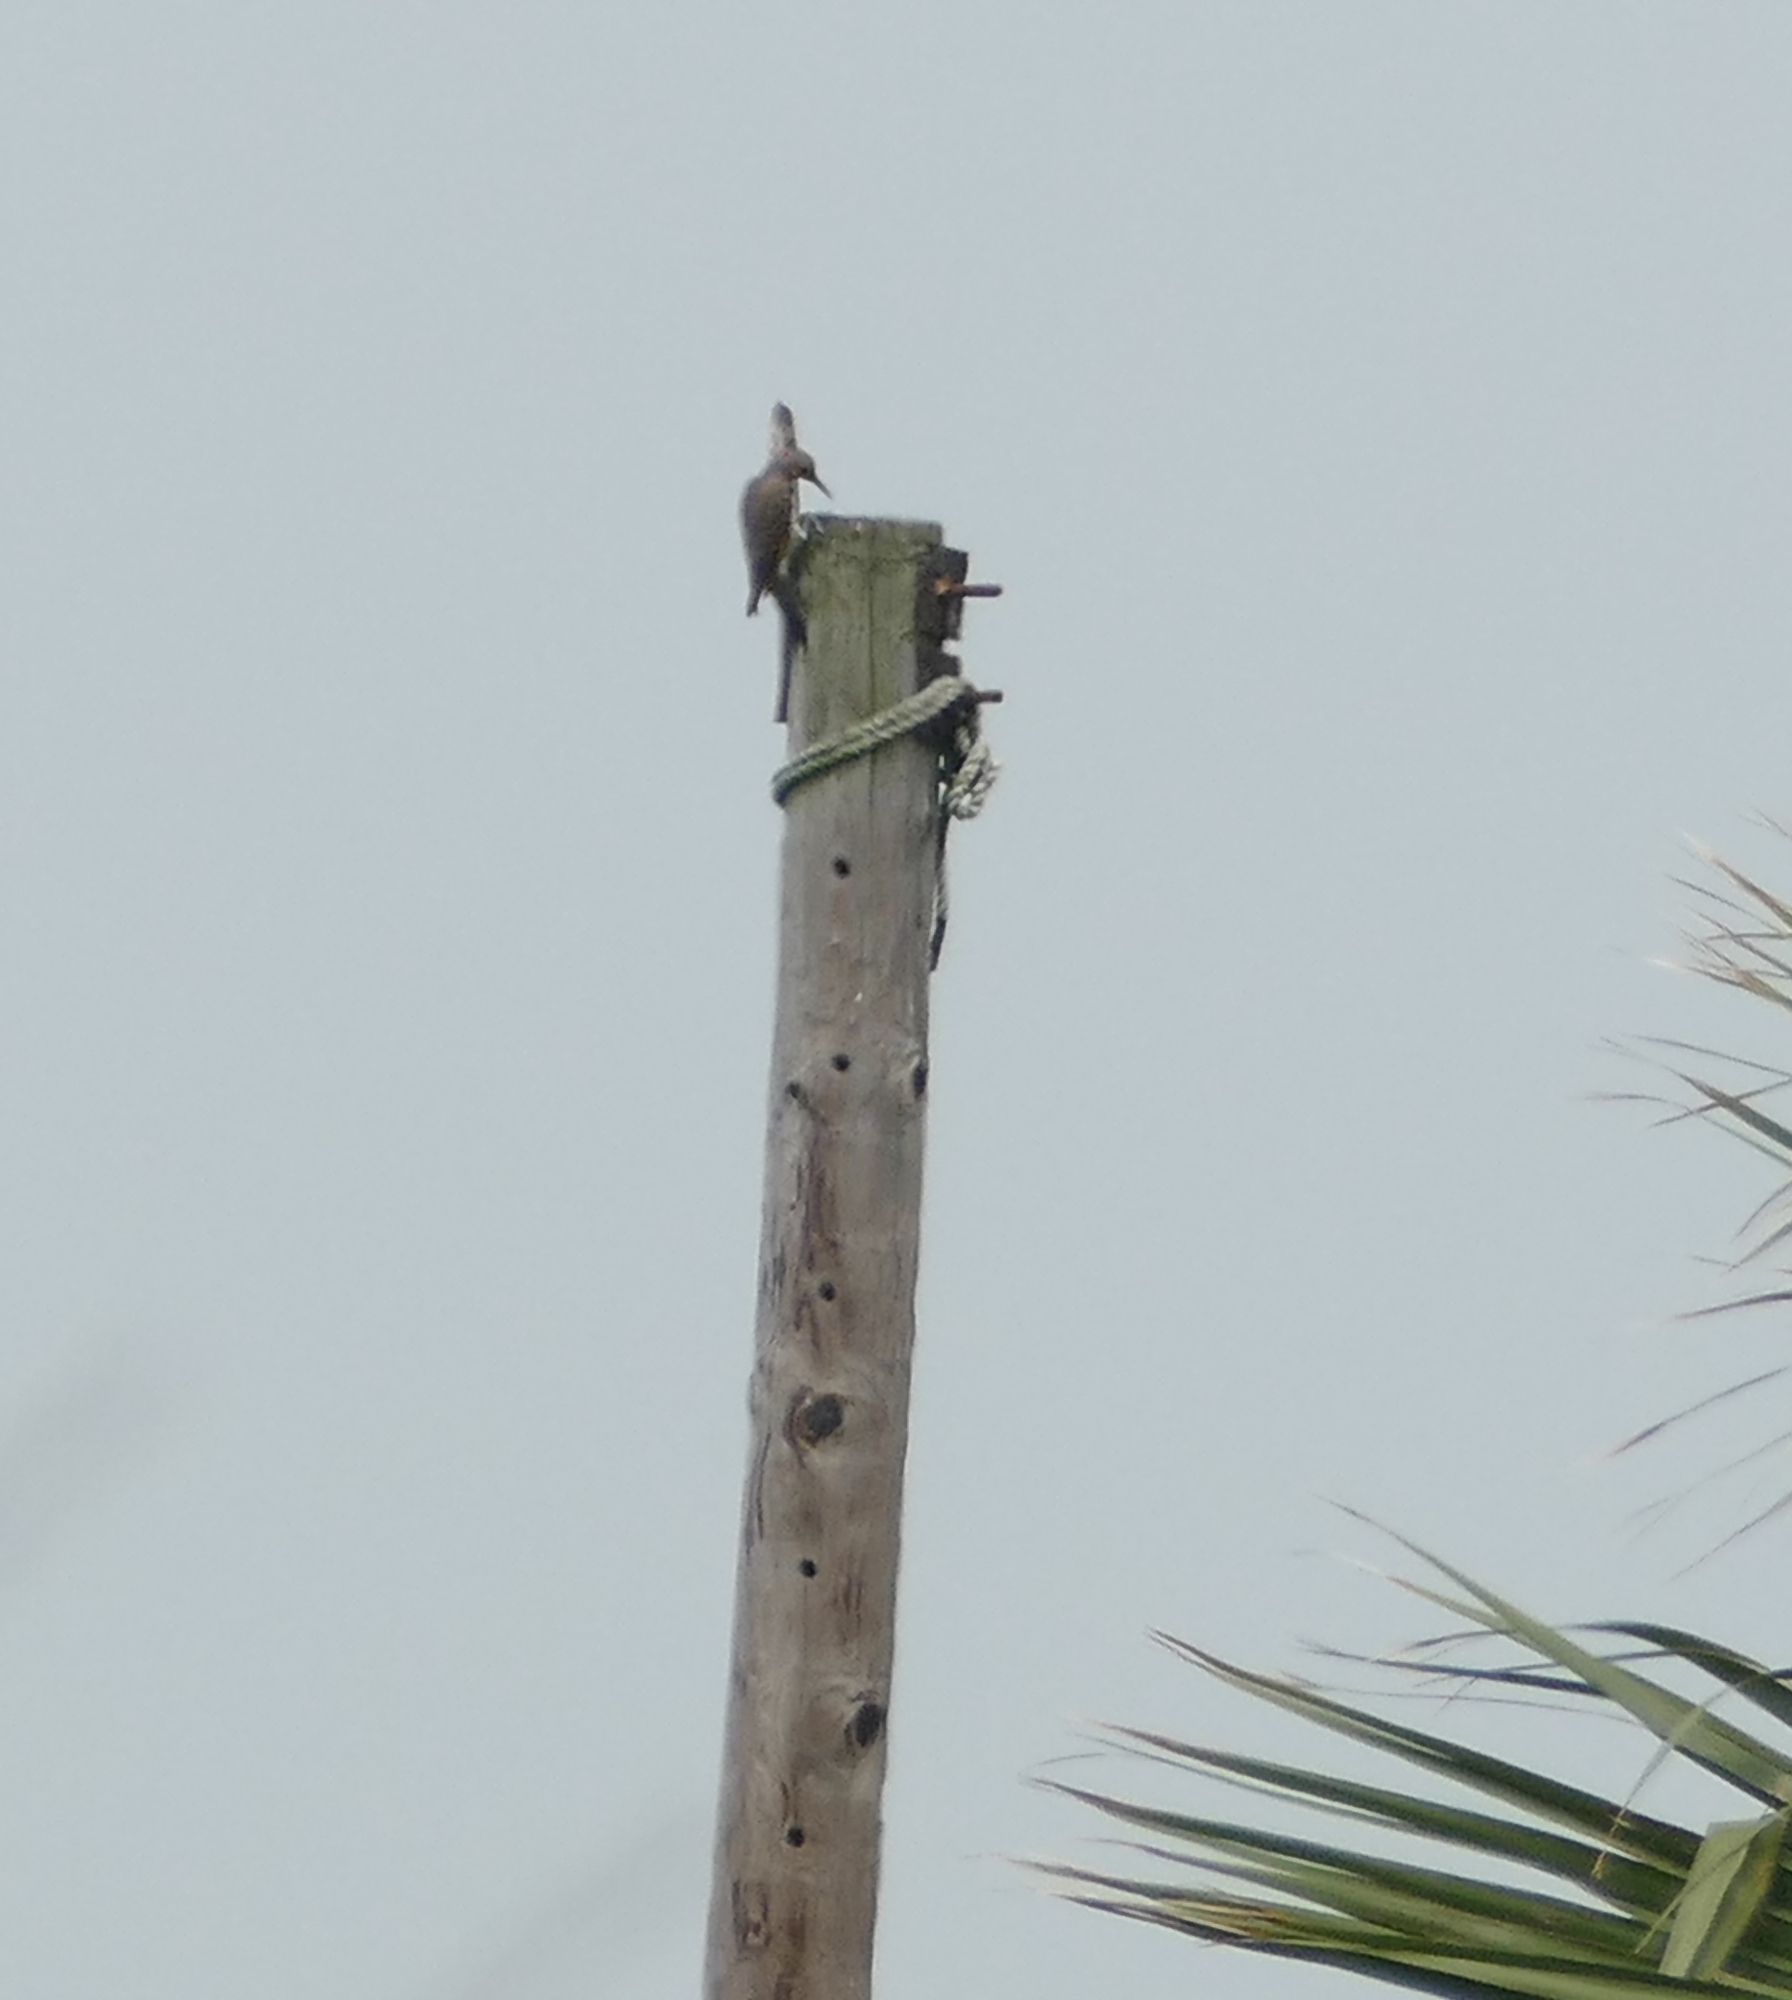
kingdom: Animalia
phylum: Chordata
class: Aves
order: Piciformes
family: Picidae
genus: Colaptes
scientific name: Colaptes auratus
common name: Northern flicker
